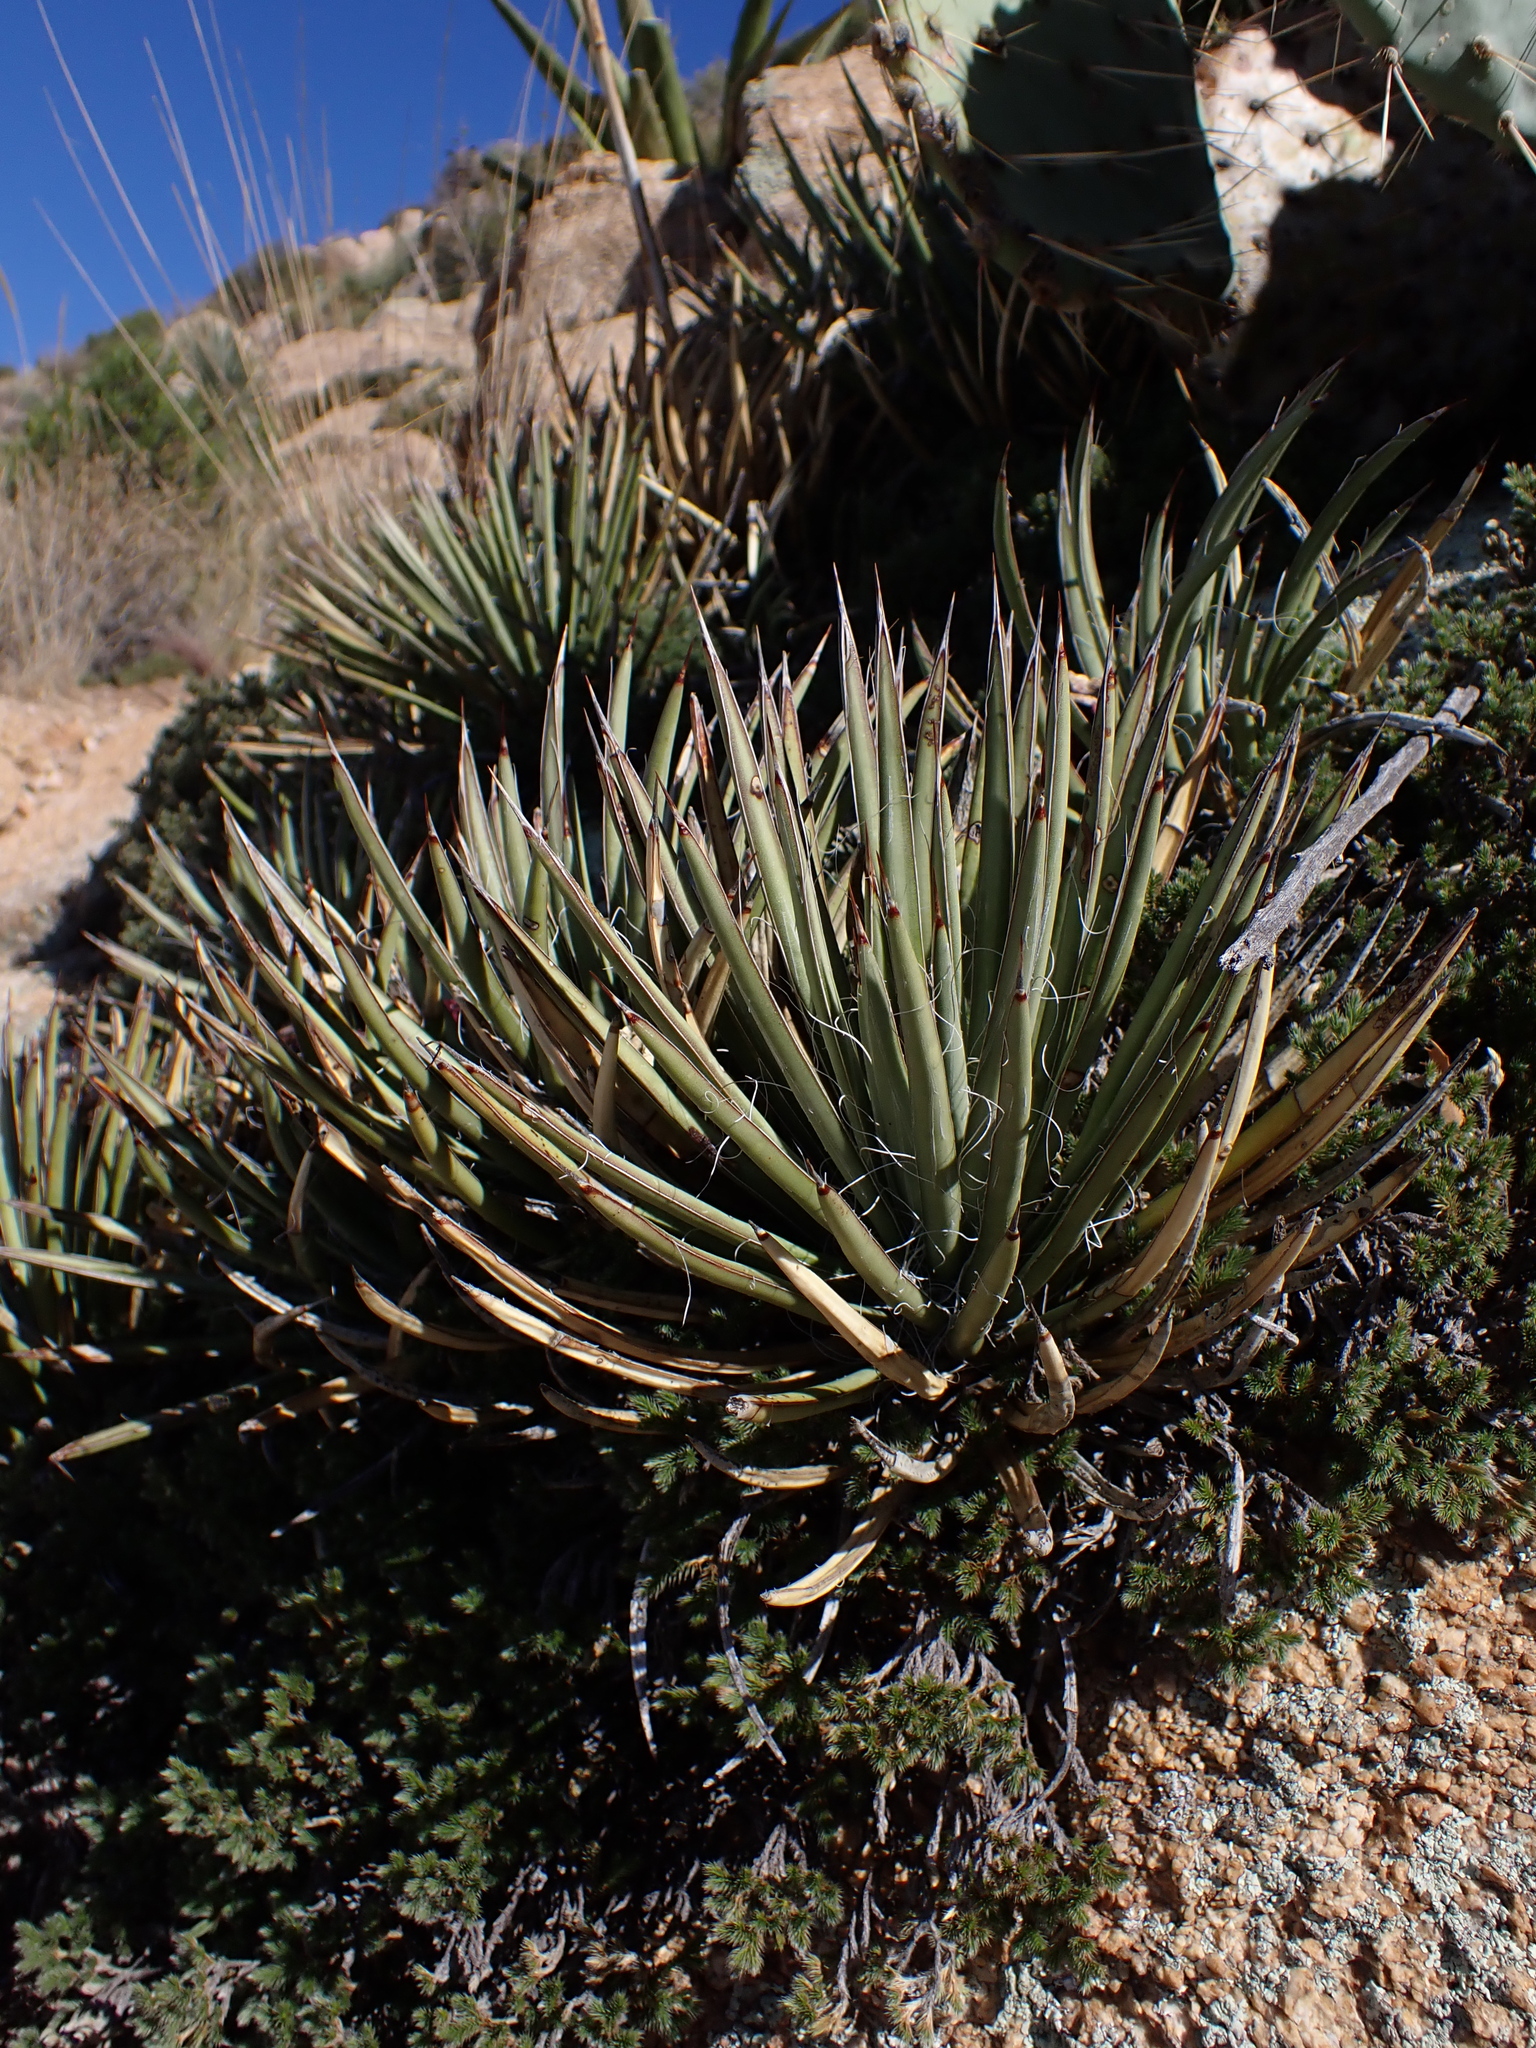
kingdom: Plantae
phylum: Tracheophyta
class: Liliopsida
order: Asparagales
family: Asparagaceae
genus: Agave
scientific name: Agave schottii
